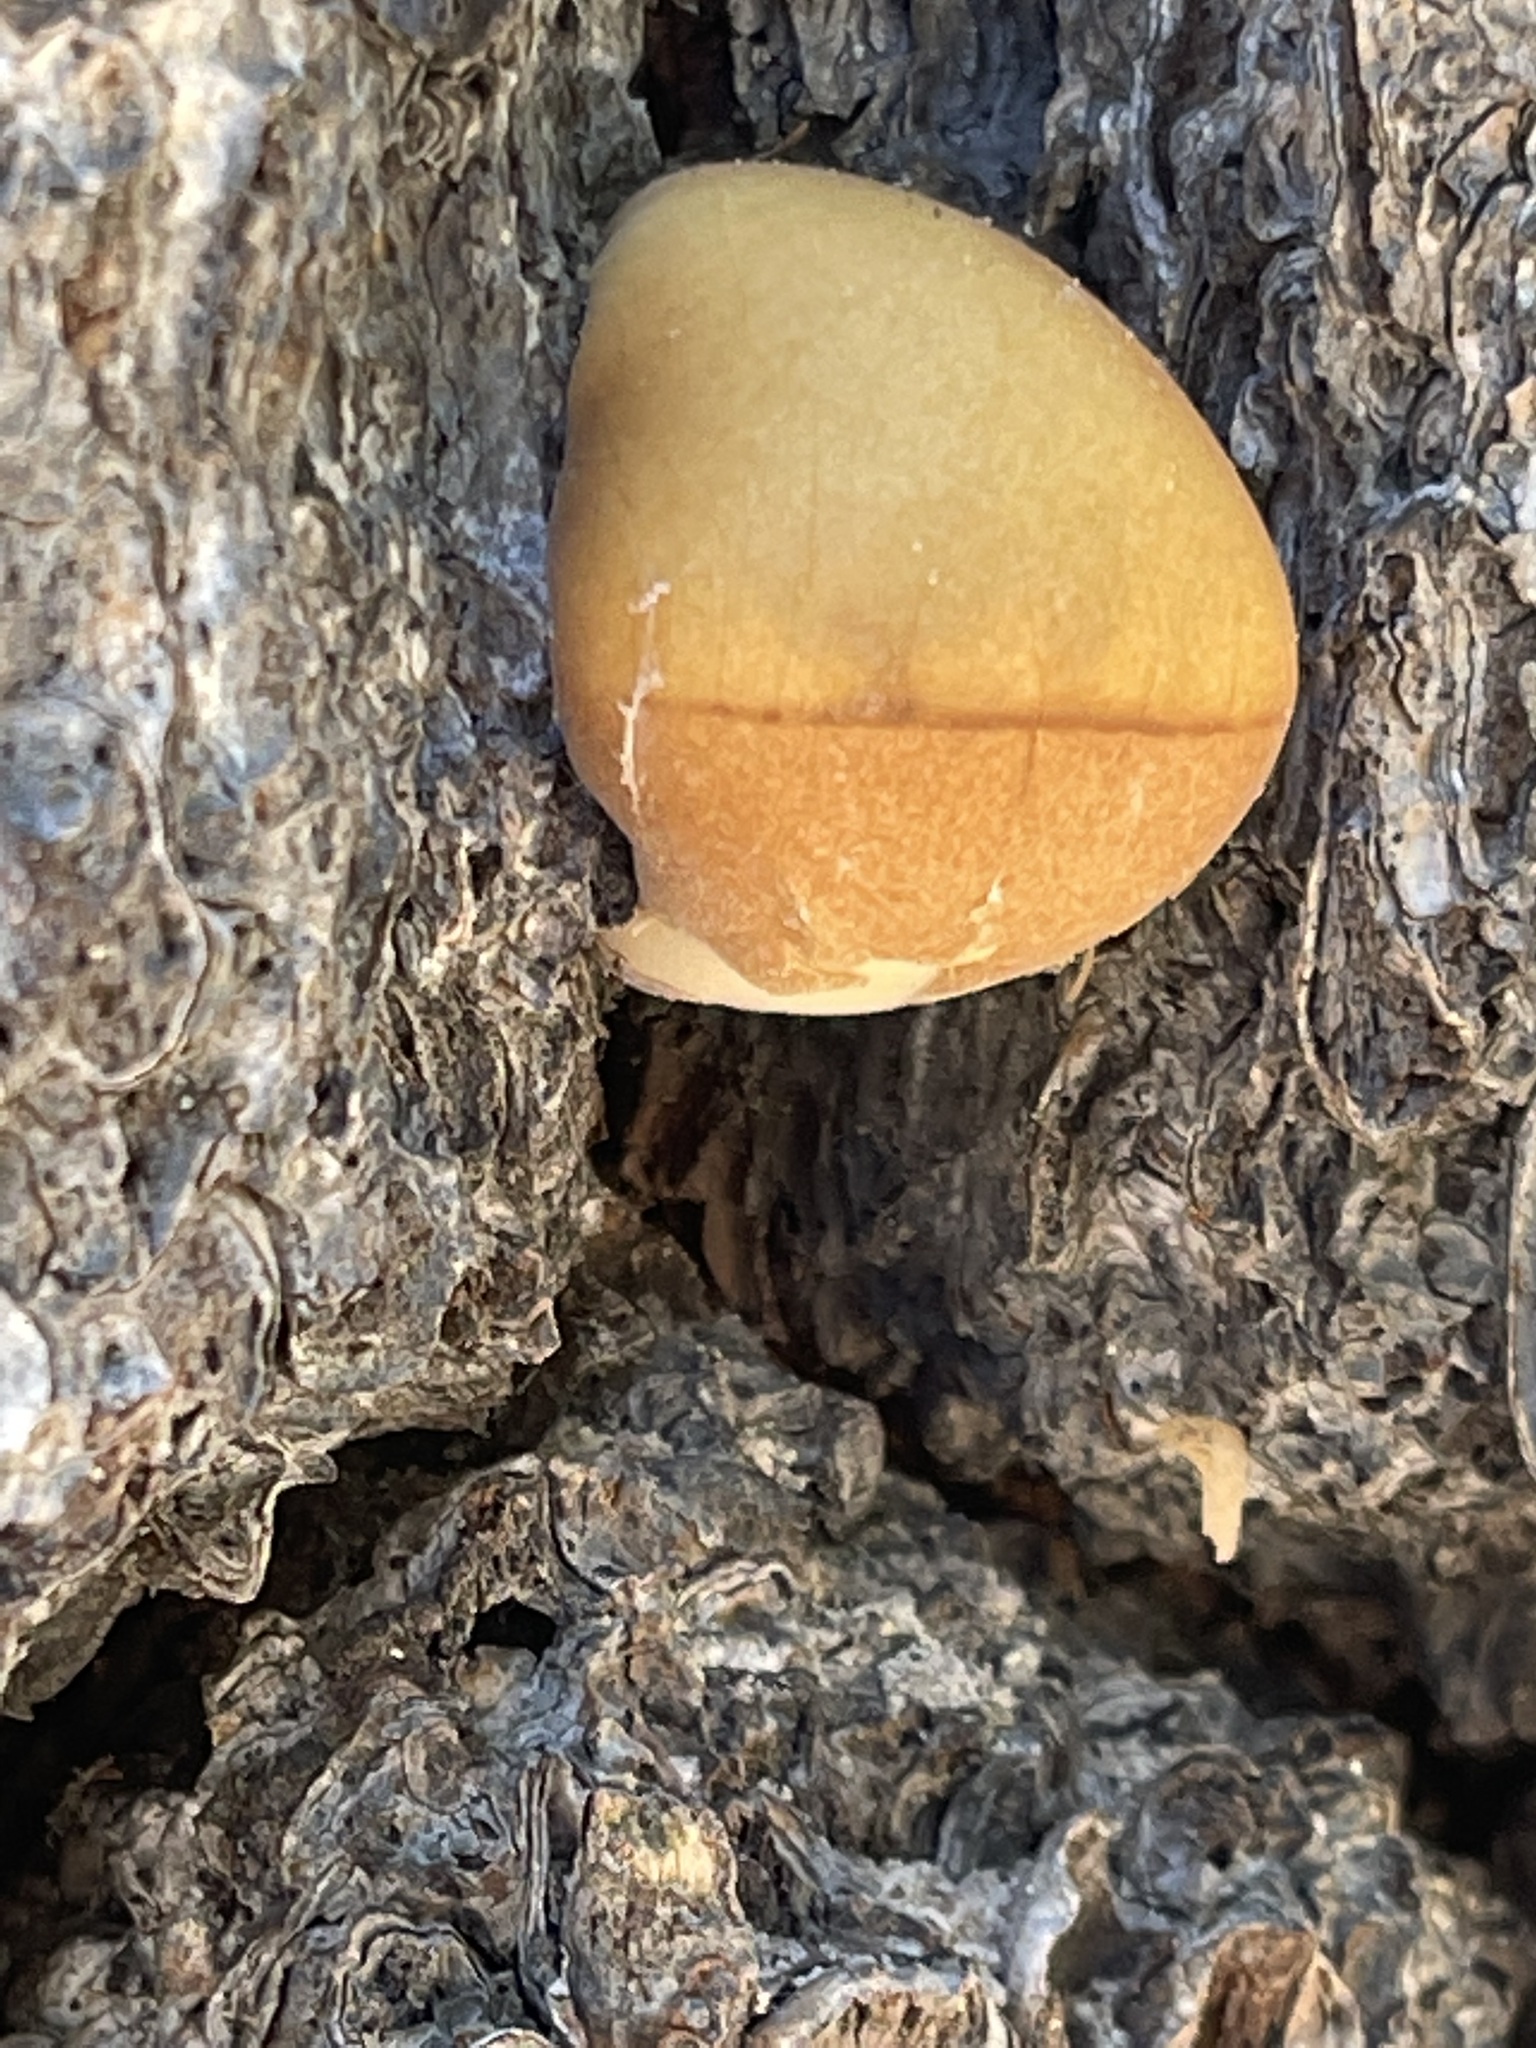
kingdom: Fungi
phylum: Basidiomycota
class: Agaricomycetes
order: Polyporales
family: Polyporaceae
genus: Cryptoporus
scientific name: Cryptoporus volvatus
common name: Veiled polypore
